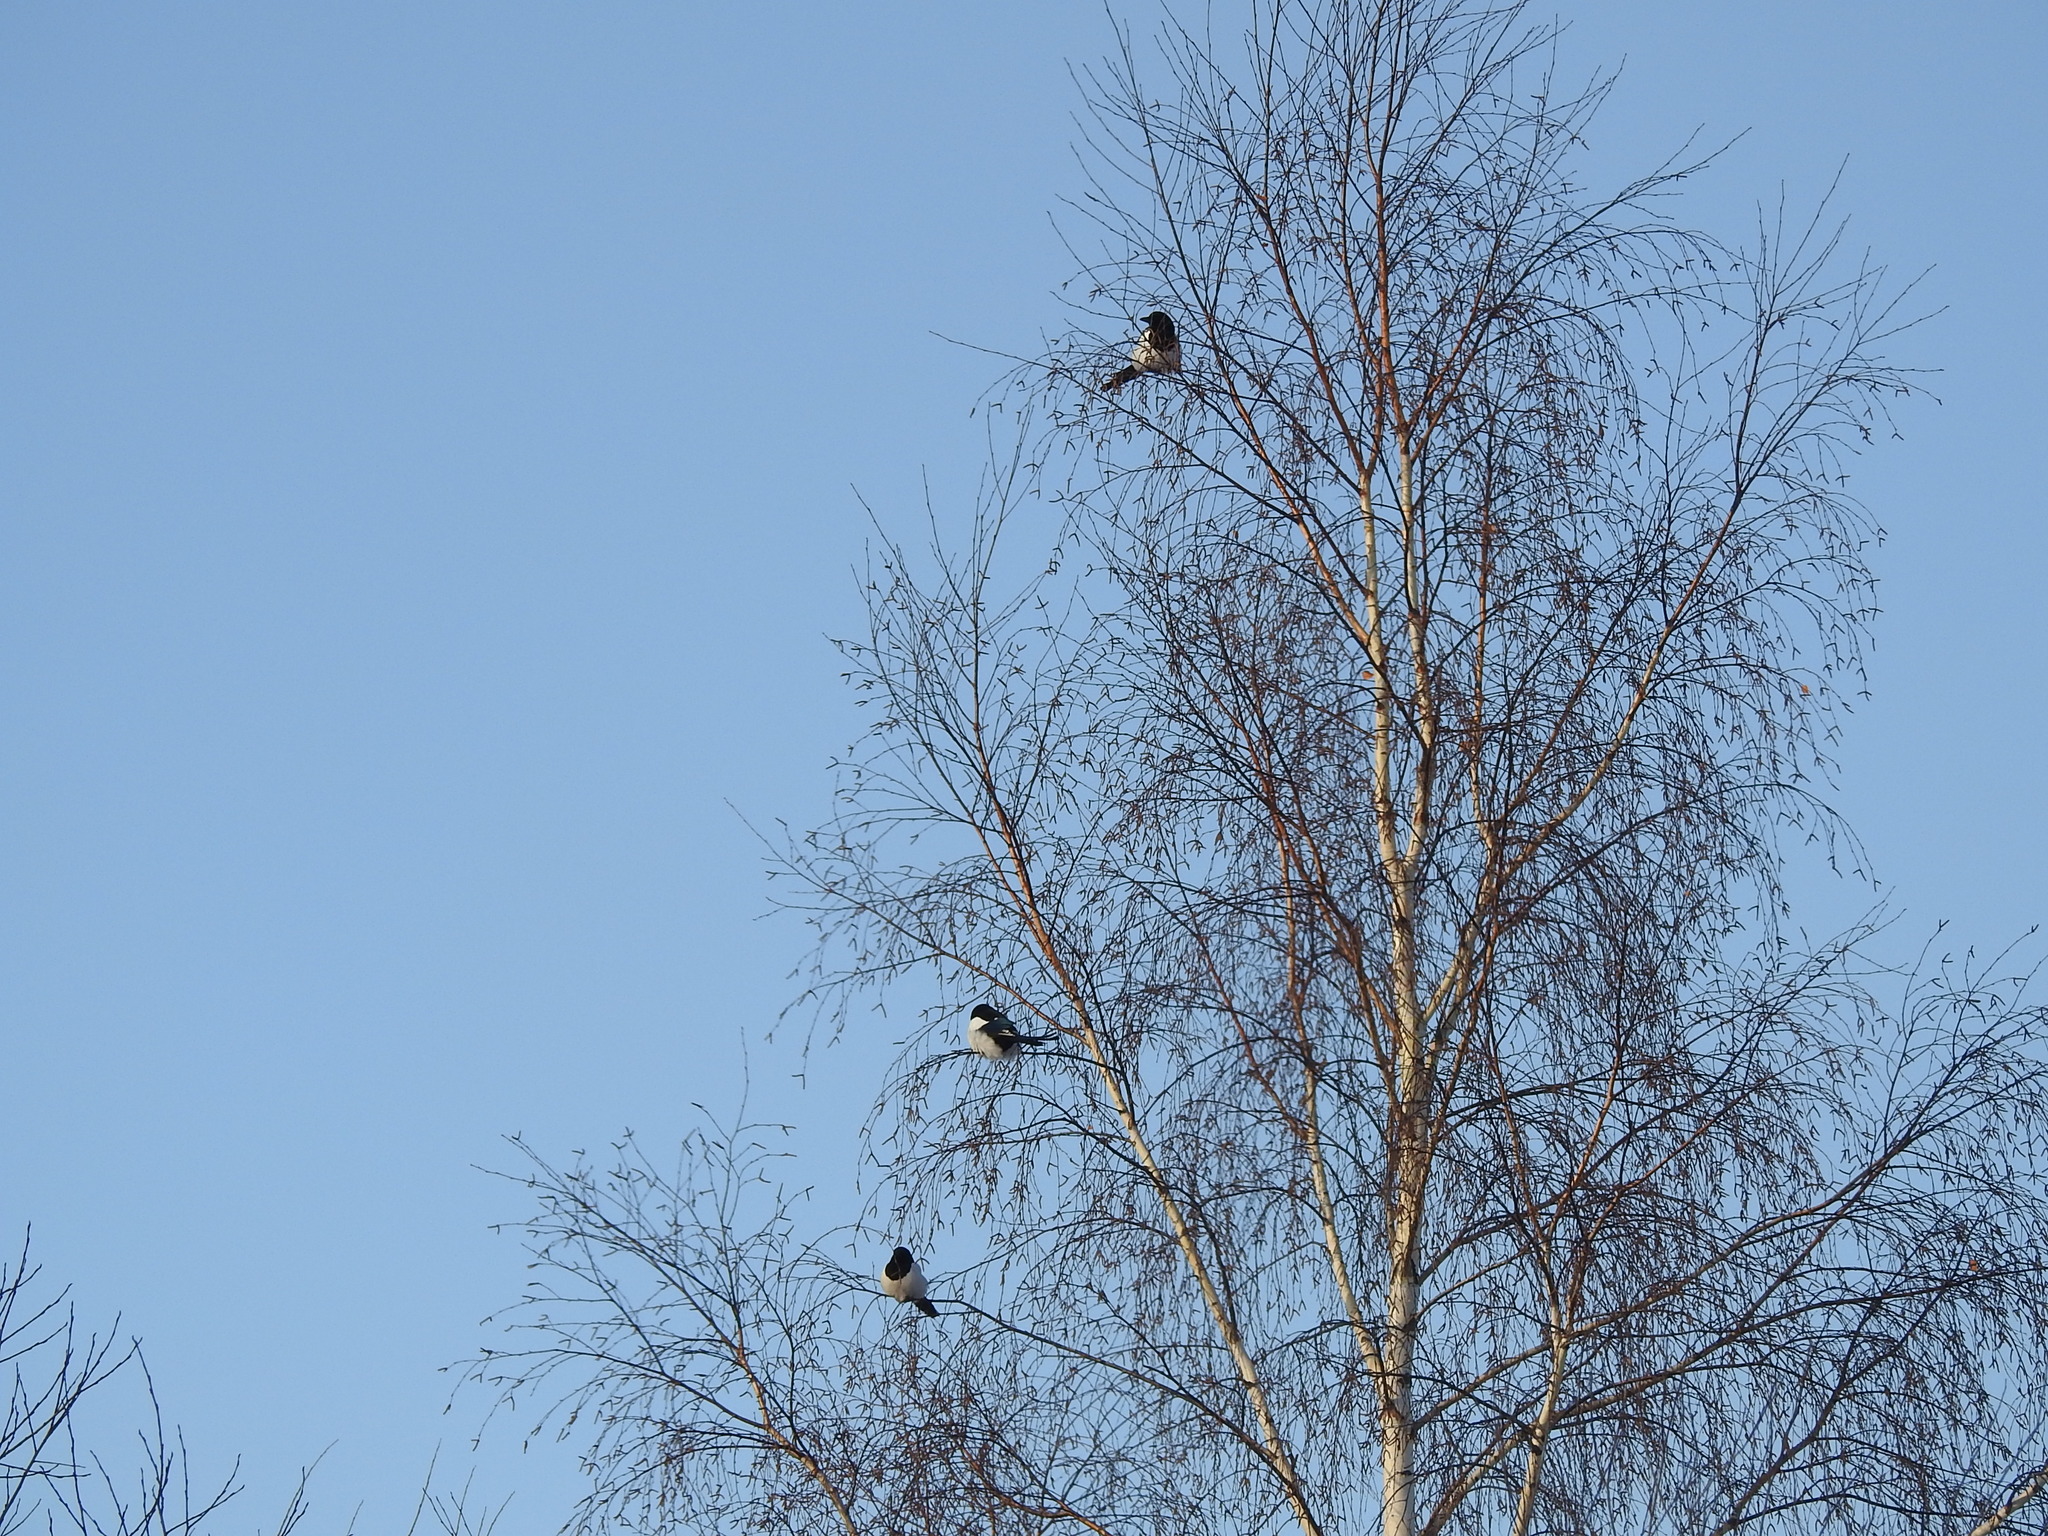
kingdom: Animalia
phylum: Chordata
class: Aves
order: Passeriformes
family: Corvidae
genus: Pica
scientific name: Pica pica
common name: Eurasian magpie
